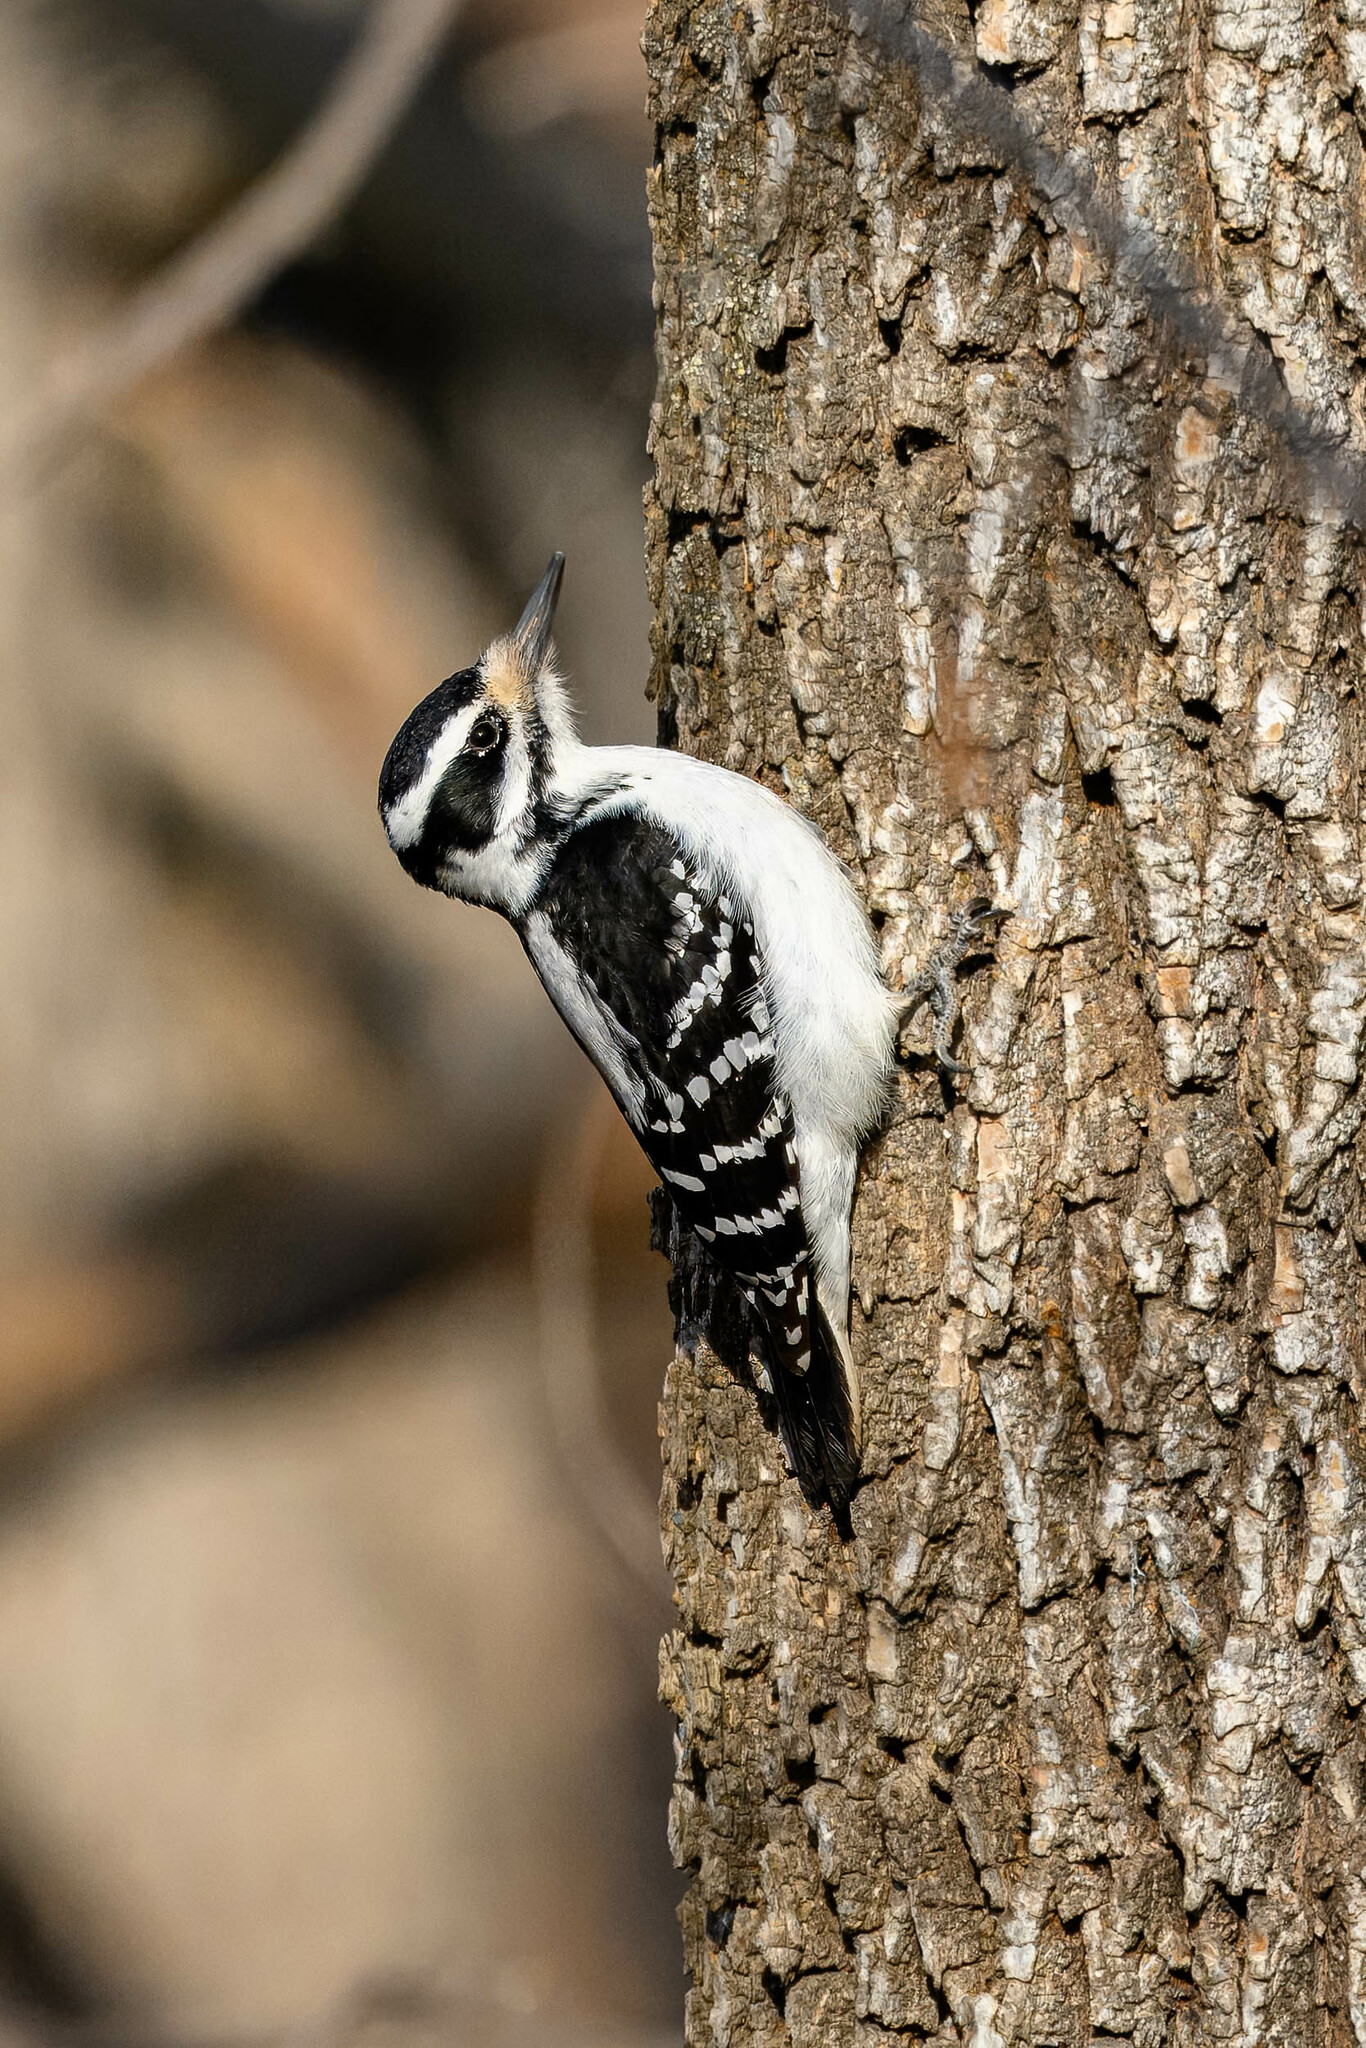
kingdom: Animalia
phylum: Chordata
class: Aves
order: Piciformes
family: Picidae
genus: Leuconotopicus
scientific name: Leuconotopicus villosus
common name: Hairy woodpecker
